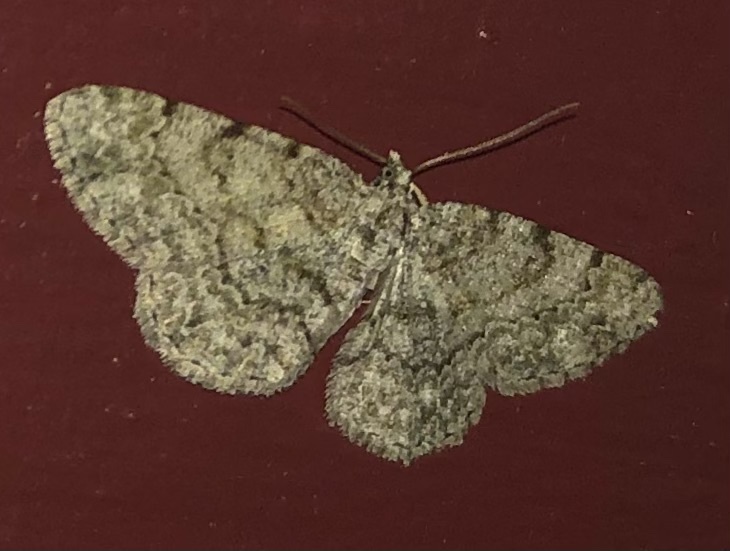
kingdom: Animalia
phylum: Arthropoda
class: Insecta
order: Lepidoptera
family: Geometridae
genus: Protoboarmia
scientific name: Protoboarmia porcelaria
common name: Porcelain gray
